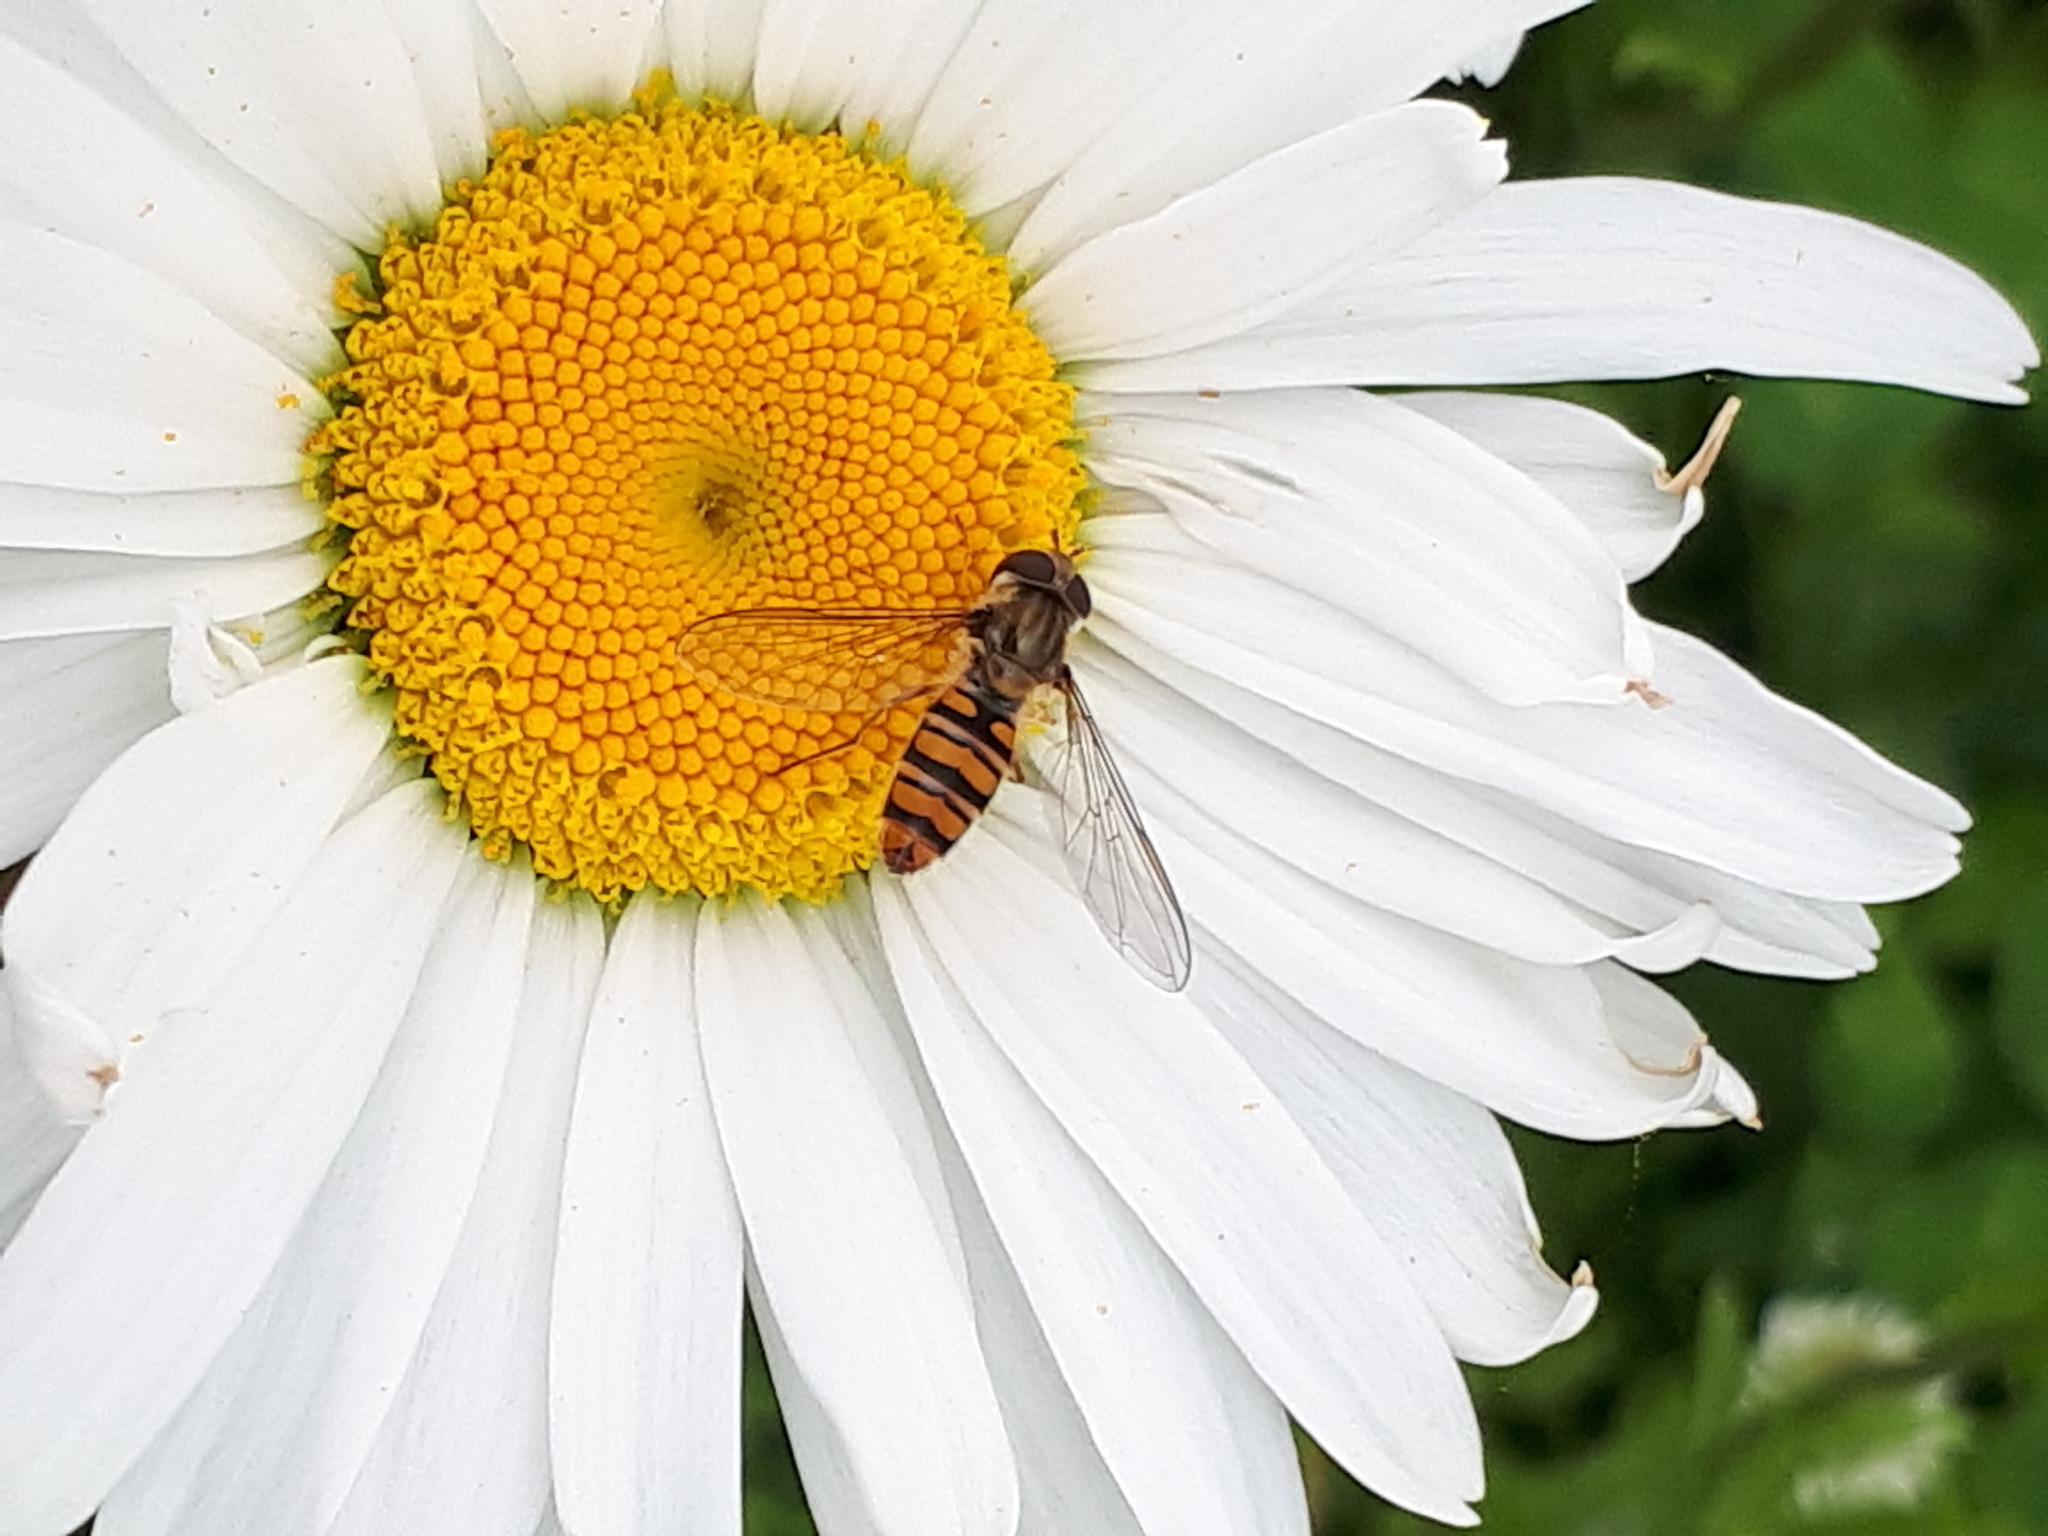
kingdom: Animalia
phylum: Arthropoda
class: Insecta
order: Diptera
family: Syrphidae
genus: Episyrphus
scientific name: Episyrphus balteatus
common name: Marmalade hoverfly
